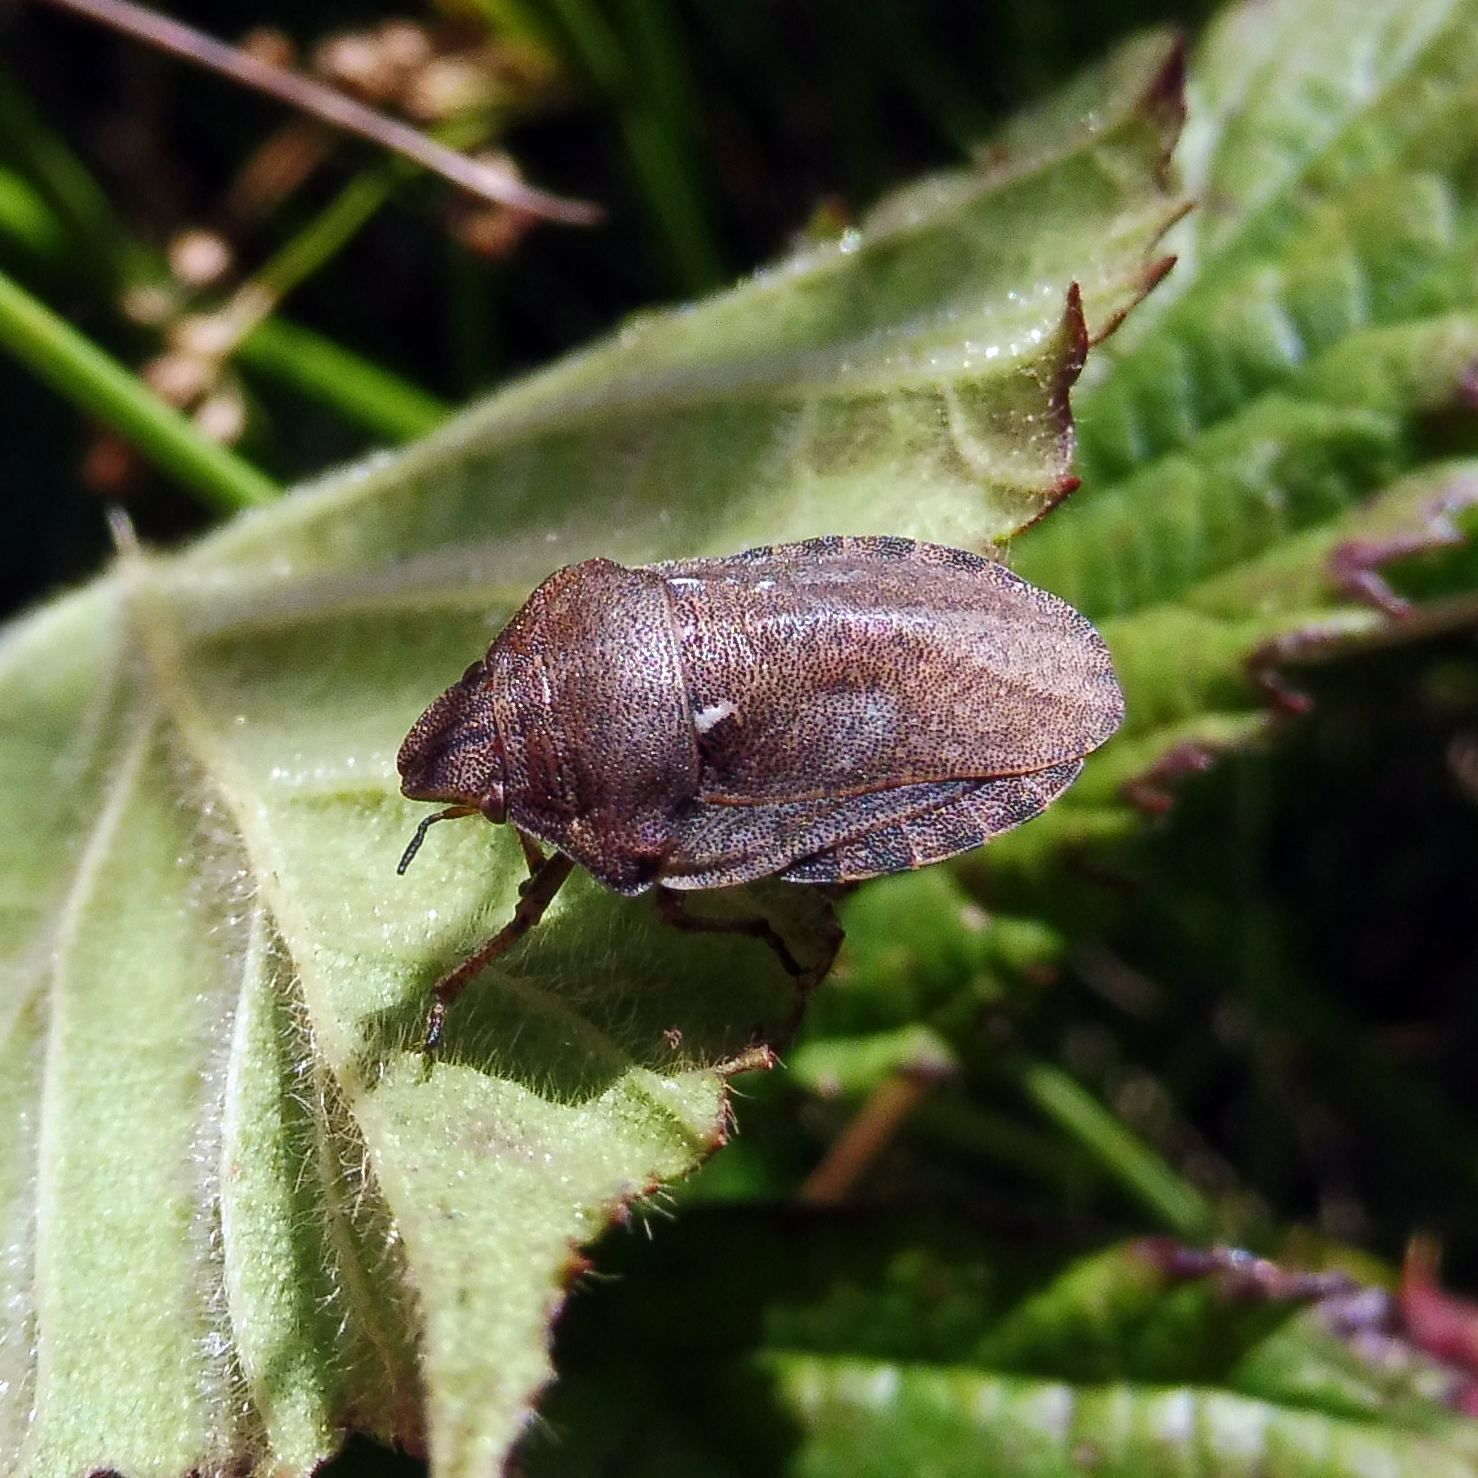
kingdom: Animalia
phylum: Arthropoda
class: Insecta
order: Hemiptera
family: Scutelleridae
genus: Eurygaster
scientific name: Eurygaster testudinaria
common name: Tortoise bug
